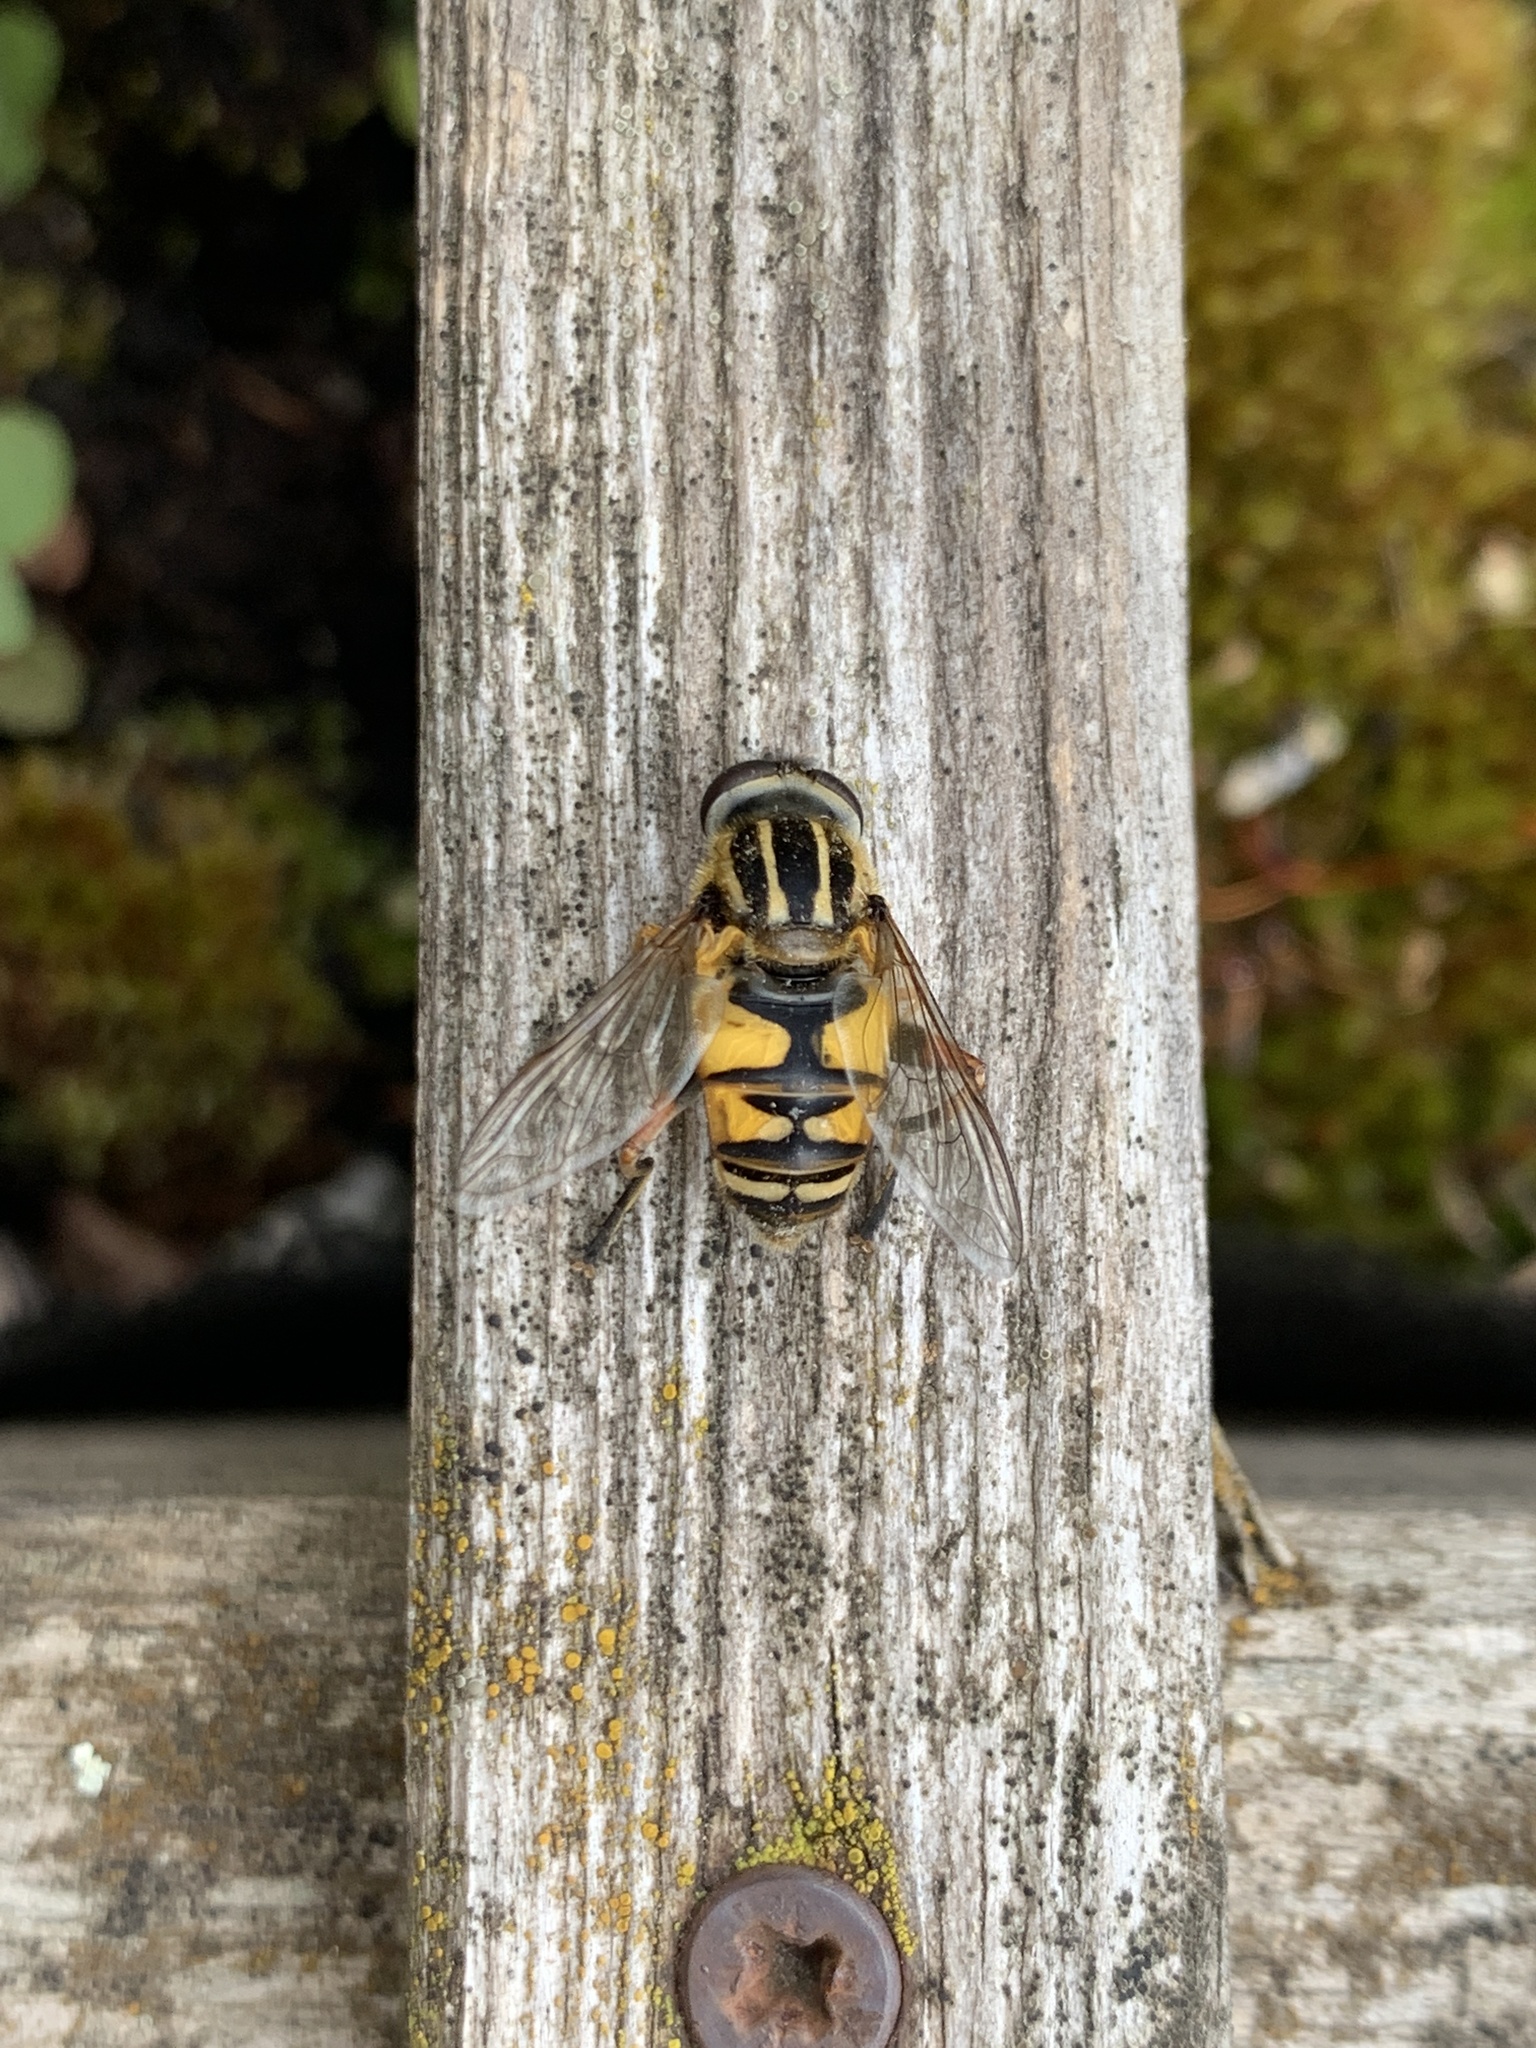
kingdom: Animalia
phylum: Arthropoda
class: Insecta
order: Diptera
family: Syrphidae
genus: Helophilus
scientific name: Helophilus pendulus
